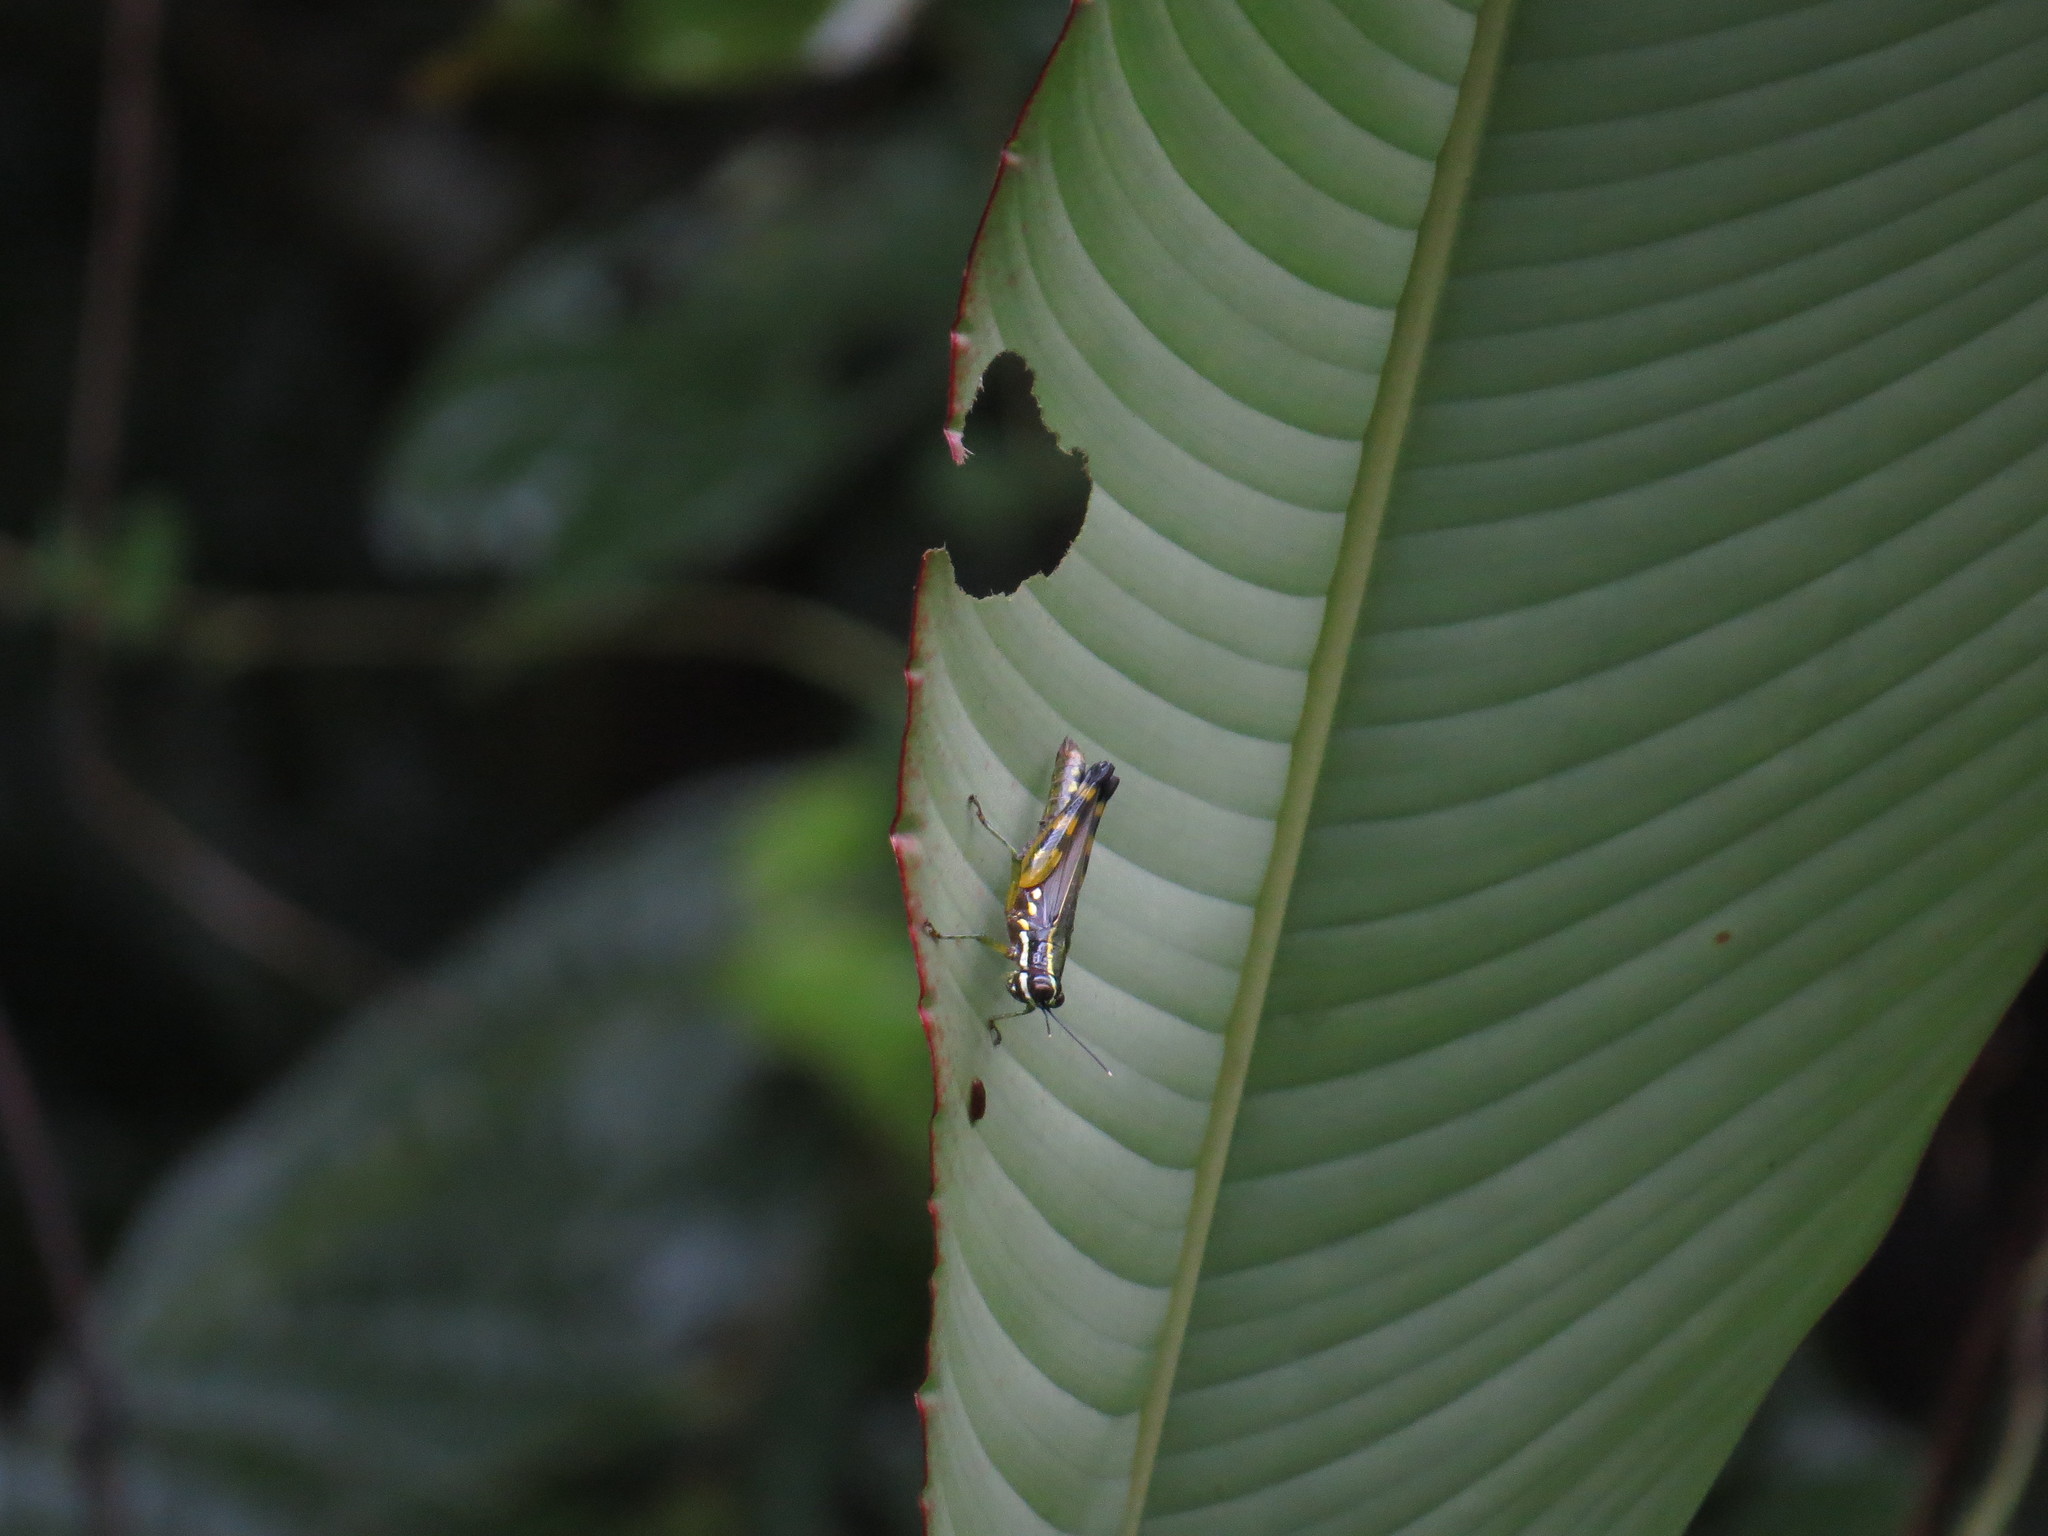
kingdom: Animalia
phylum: Arthropoda
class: Insecta
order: Orthoptera
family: Acrididae
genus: Tetrataenia
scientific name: Tetrataenia surinama
